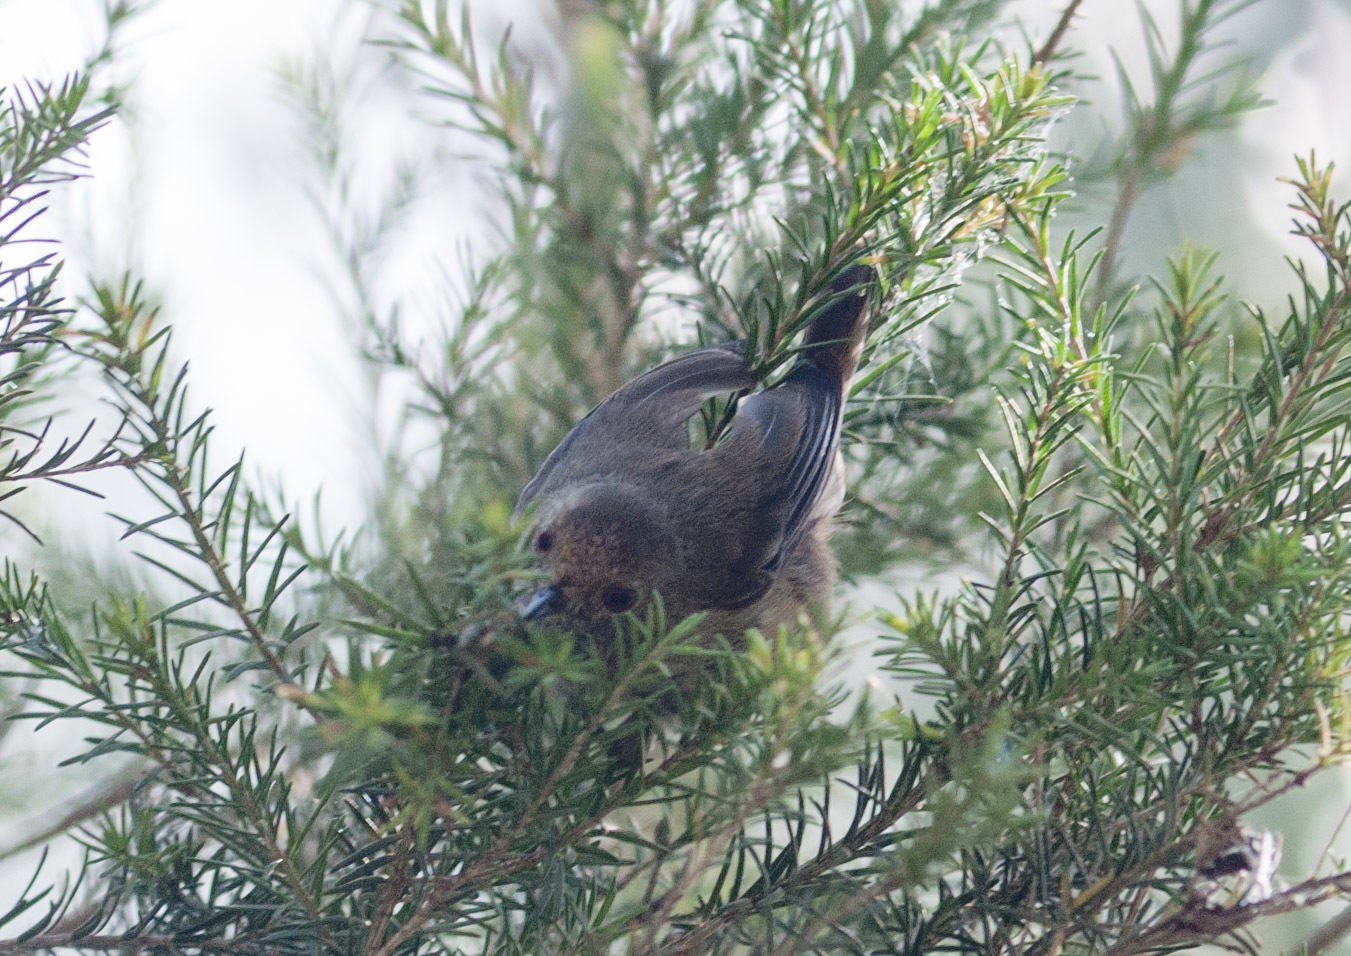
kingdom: Animalia
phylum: Chordata
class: Aves
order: Passeriformes
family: Acanthizidae
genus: Acanthiza
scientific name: Acanthiza pusilla
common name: Brown thornbill
